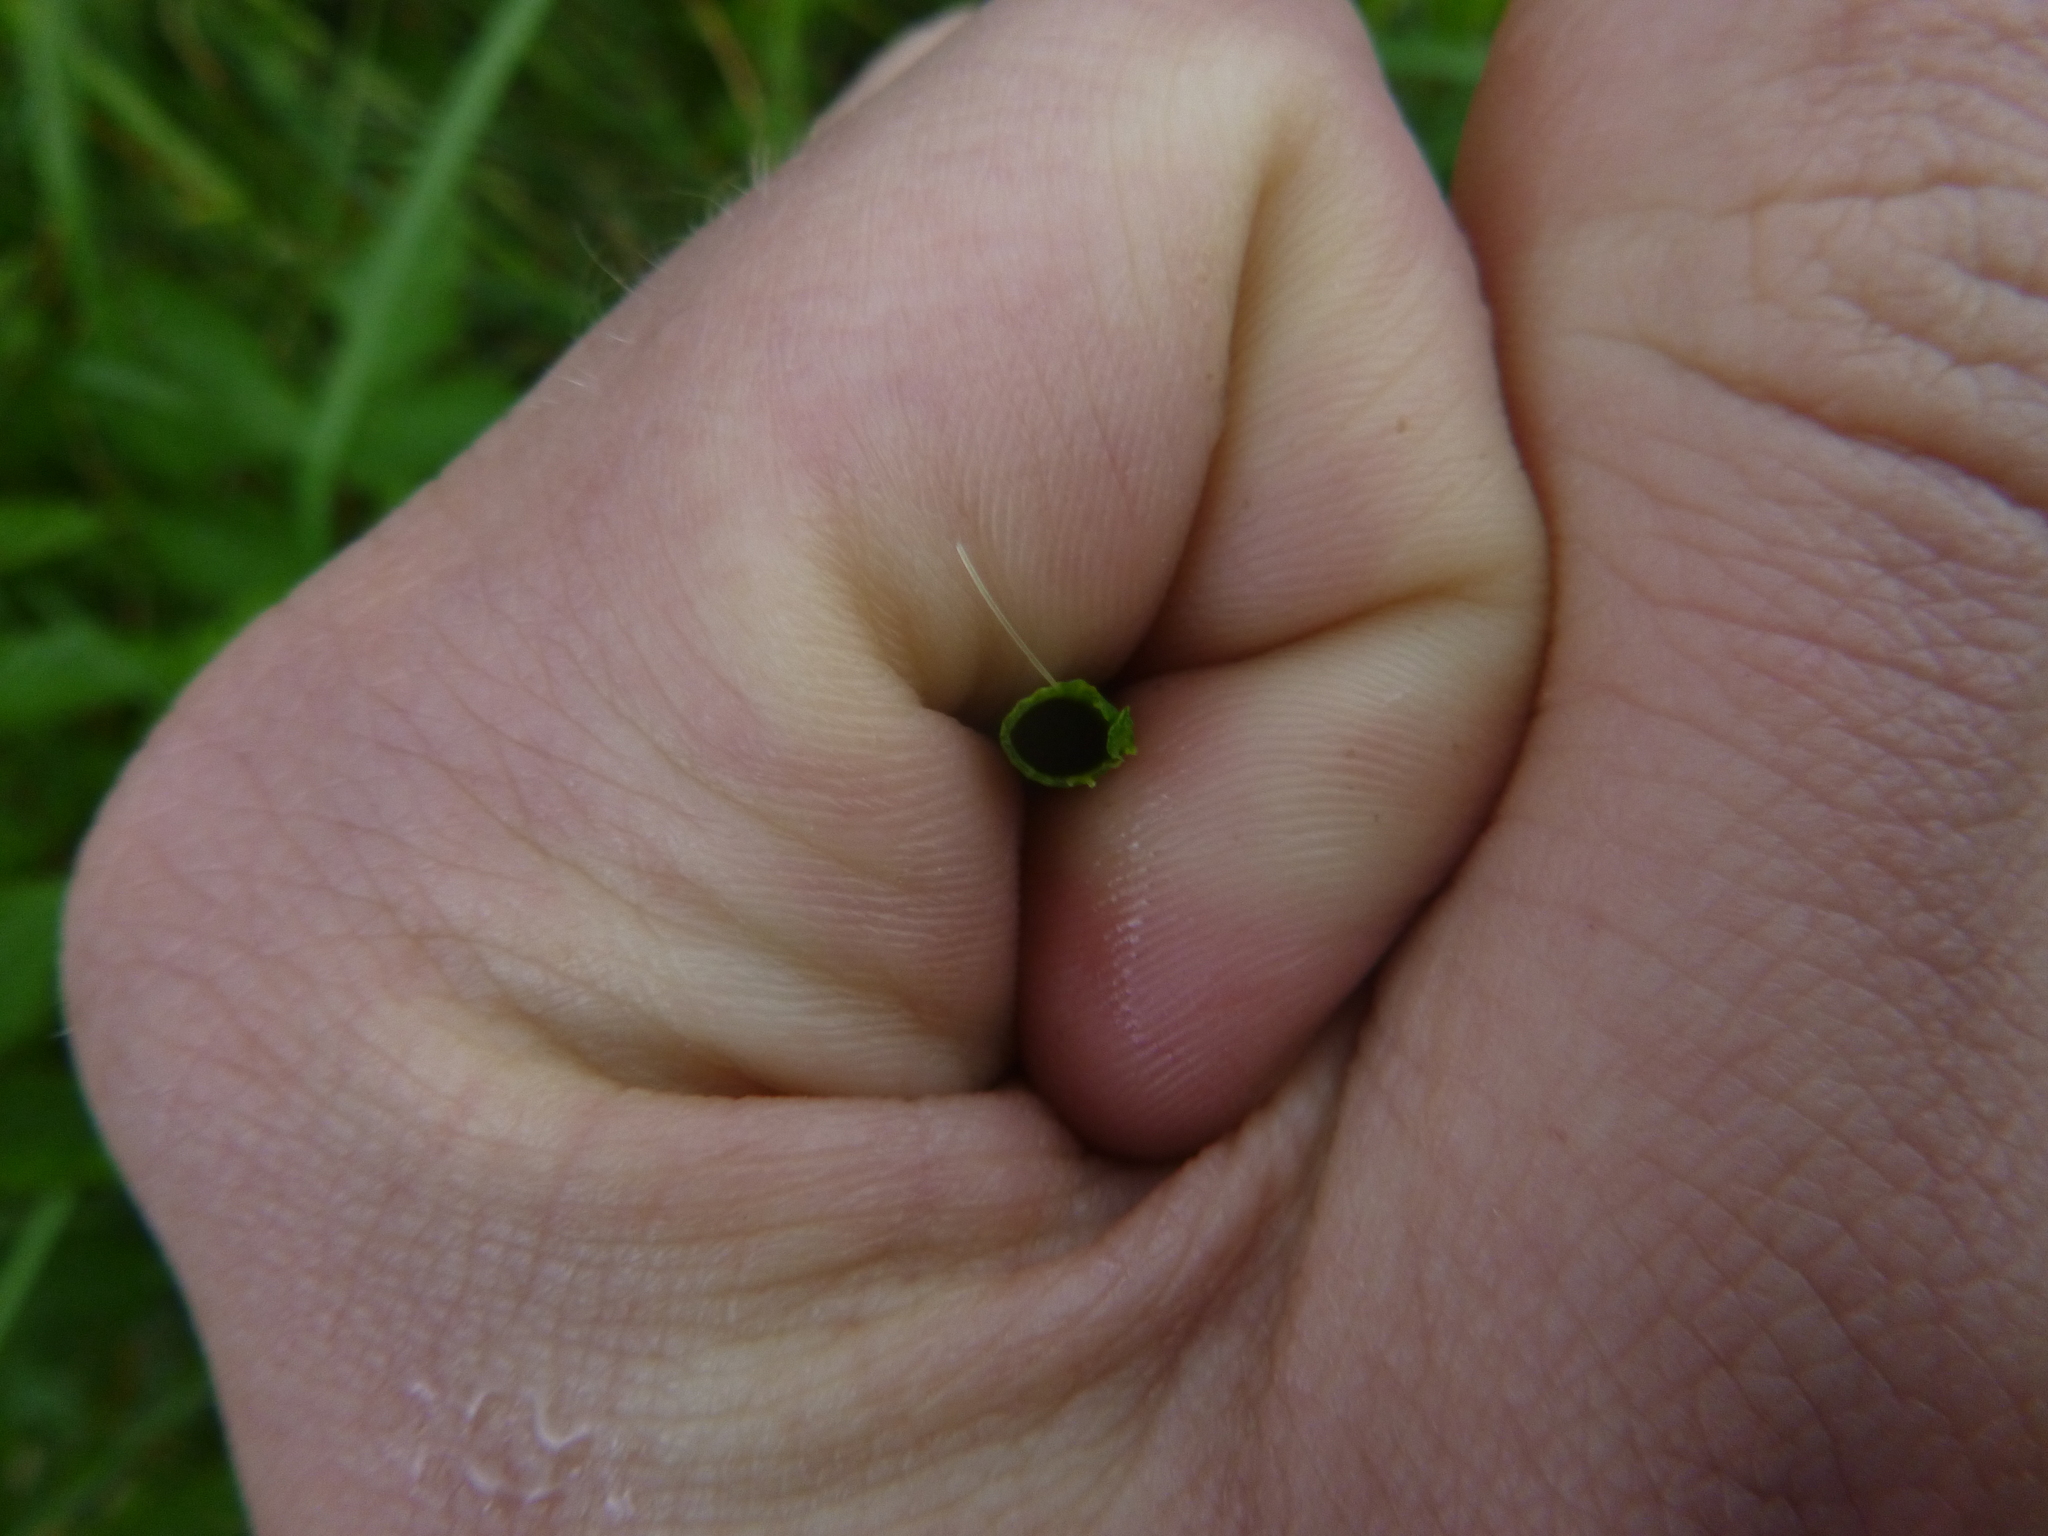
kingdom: Plantae
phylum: Tracheophyta
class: Polypodiopsida
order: Equisetales
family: Equisetaceae
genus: Equisetum
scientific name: Equisetum fluviatile
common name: Water horsetail
